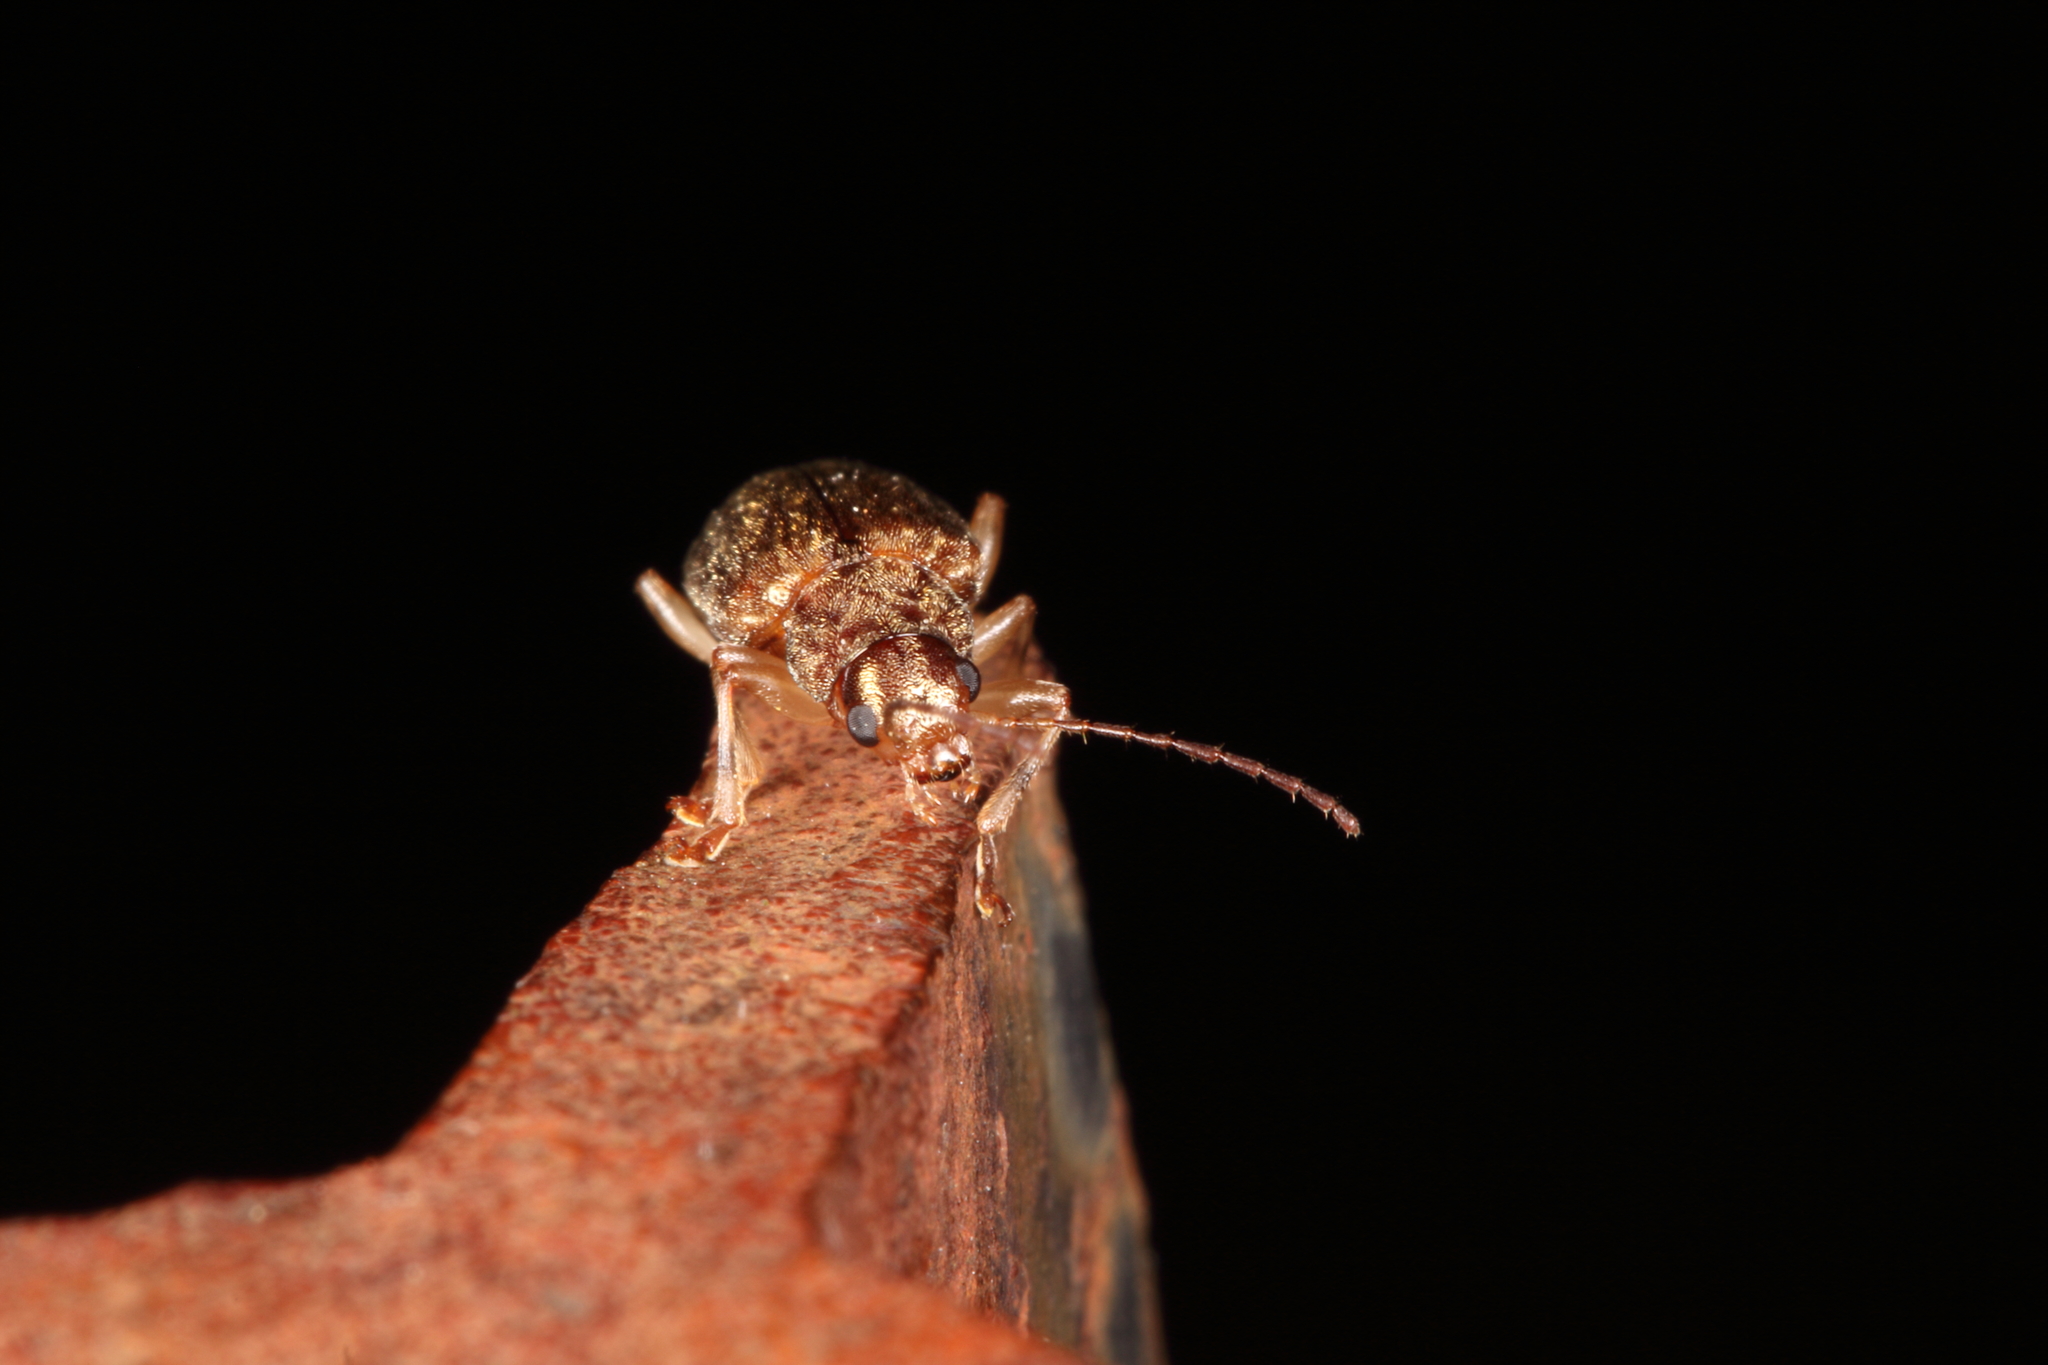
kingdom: Animalia
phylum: Arthropoda
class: Insecta
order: Coleoptera
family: Chrysomelidae
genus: Pilacolaspis
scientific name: Pilacolaspis latipennis
